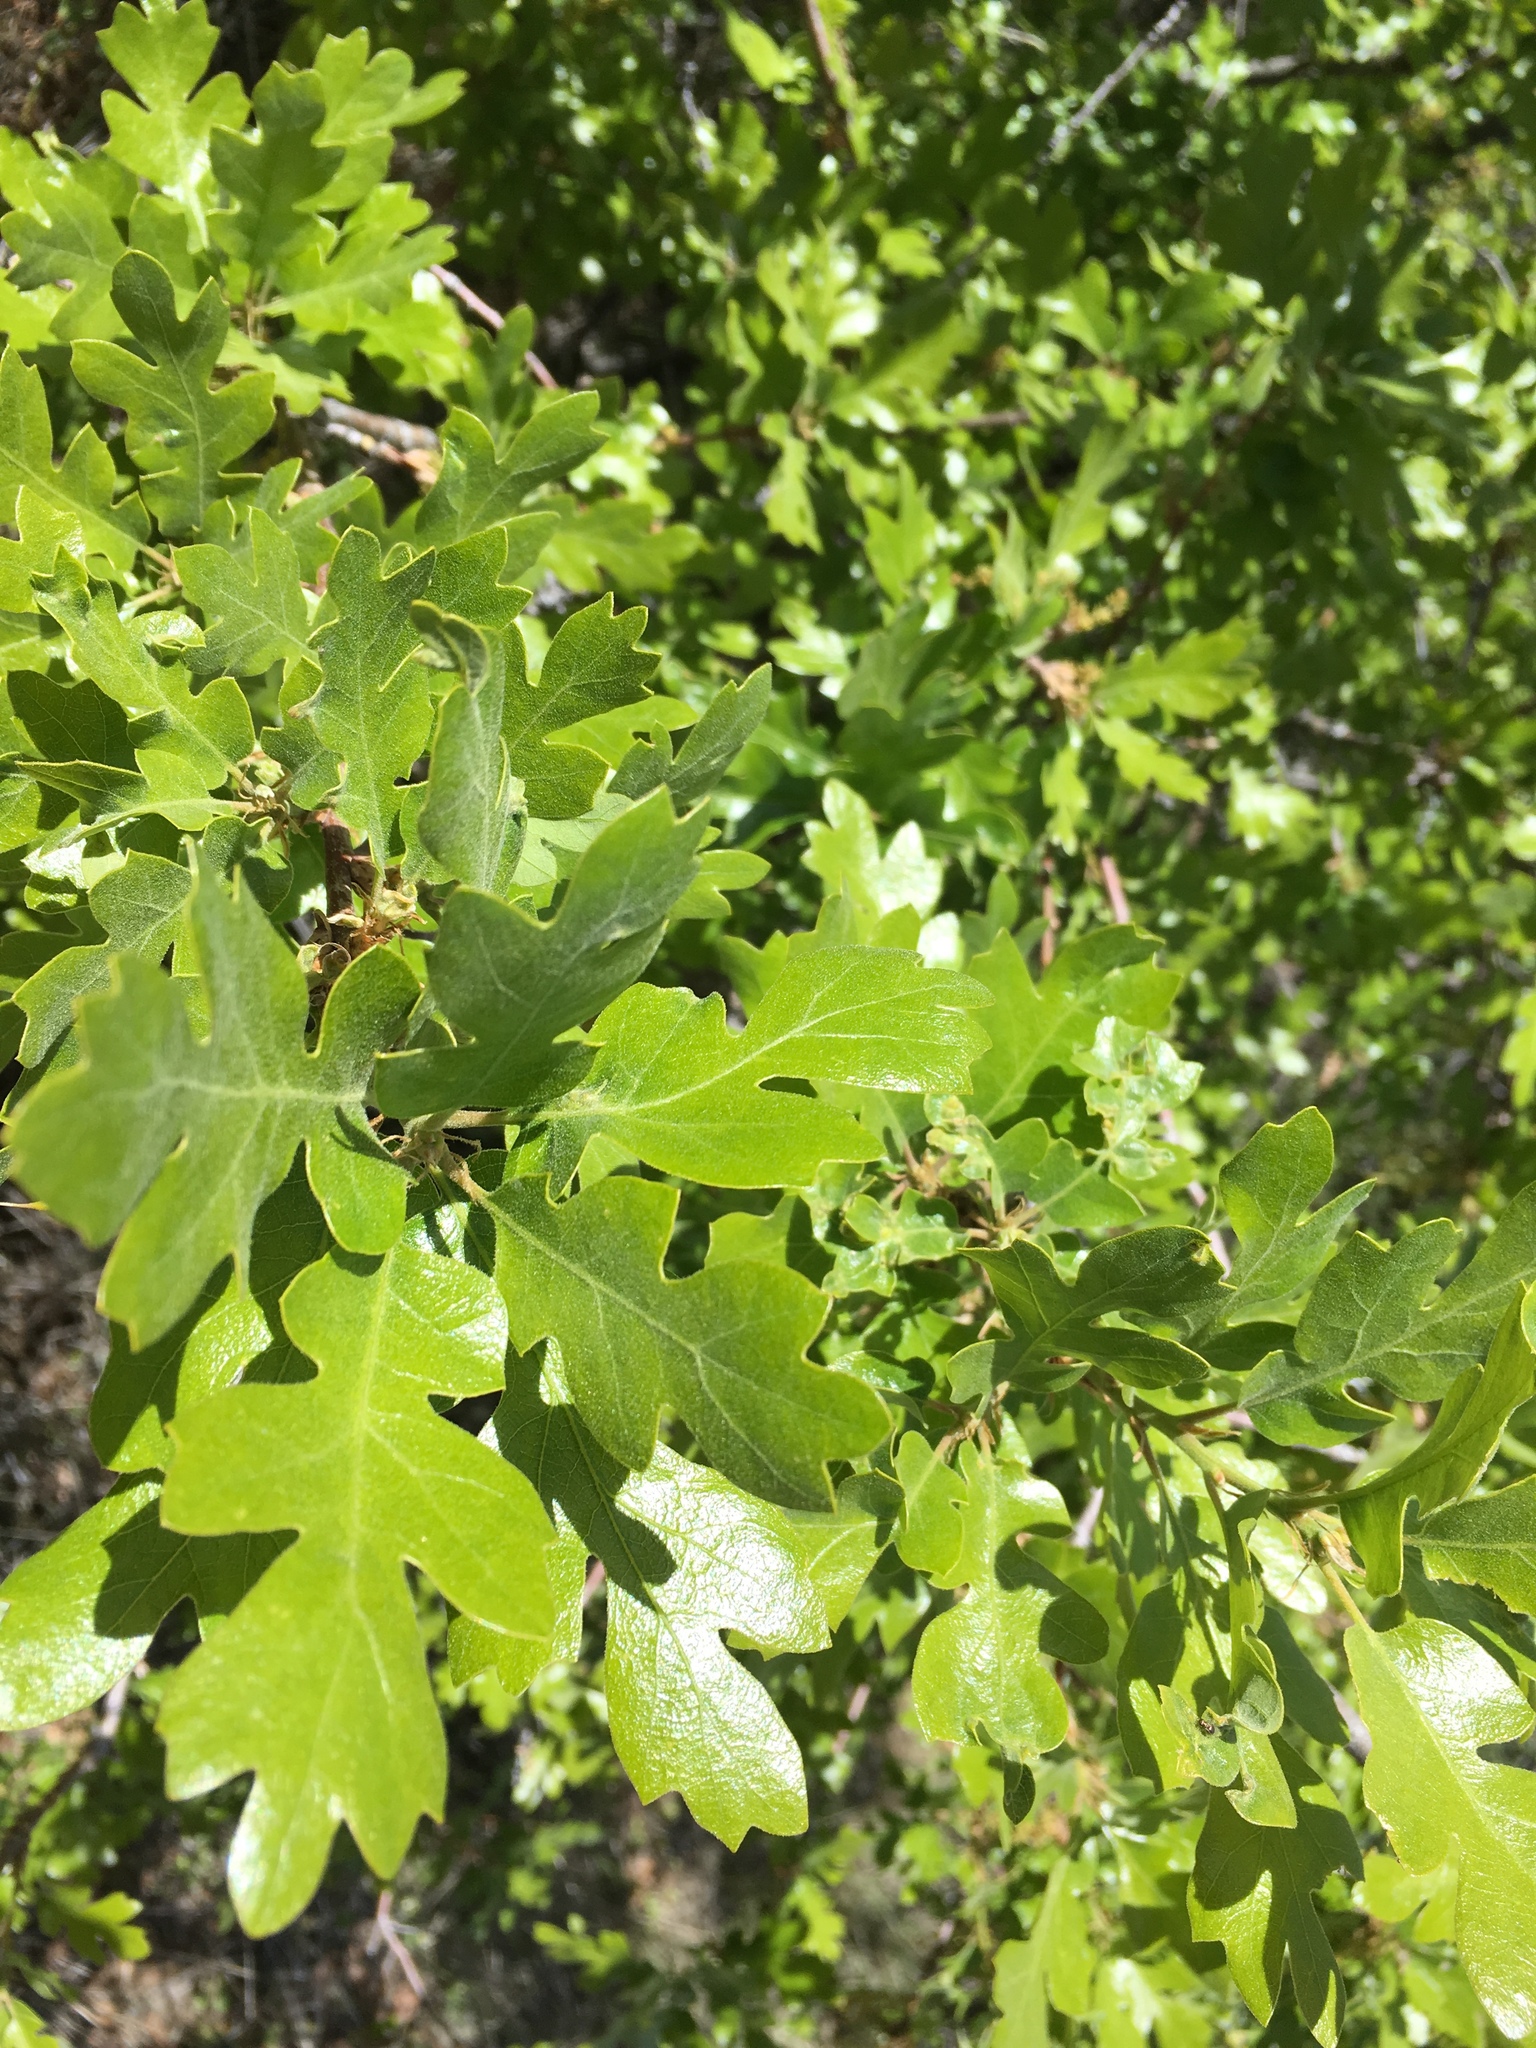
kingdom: Plantae
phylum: Tracheophyta
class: Magnoliopsida
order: Fagales
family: Fagaceae
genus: Quercus
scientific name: Quercus lobata
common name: Valley oak
